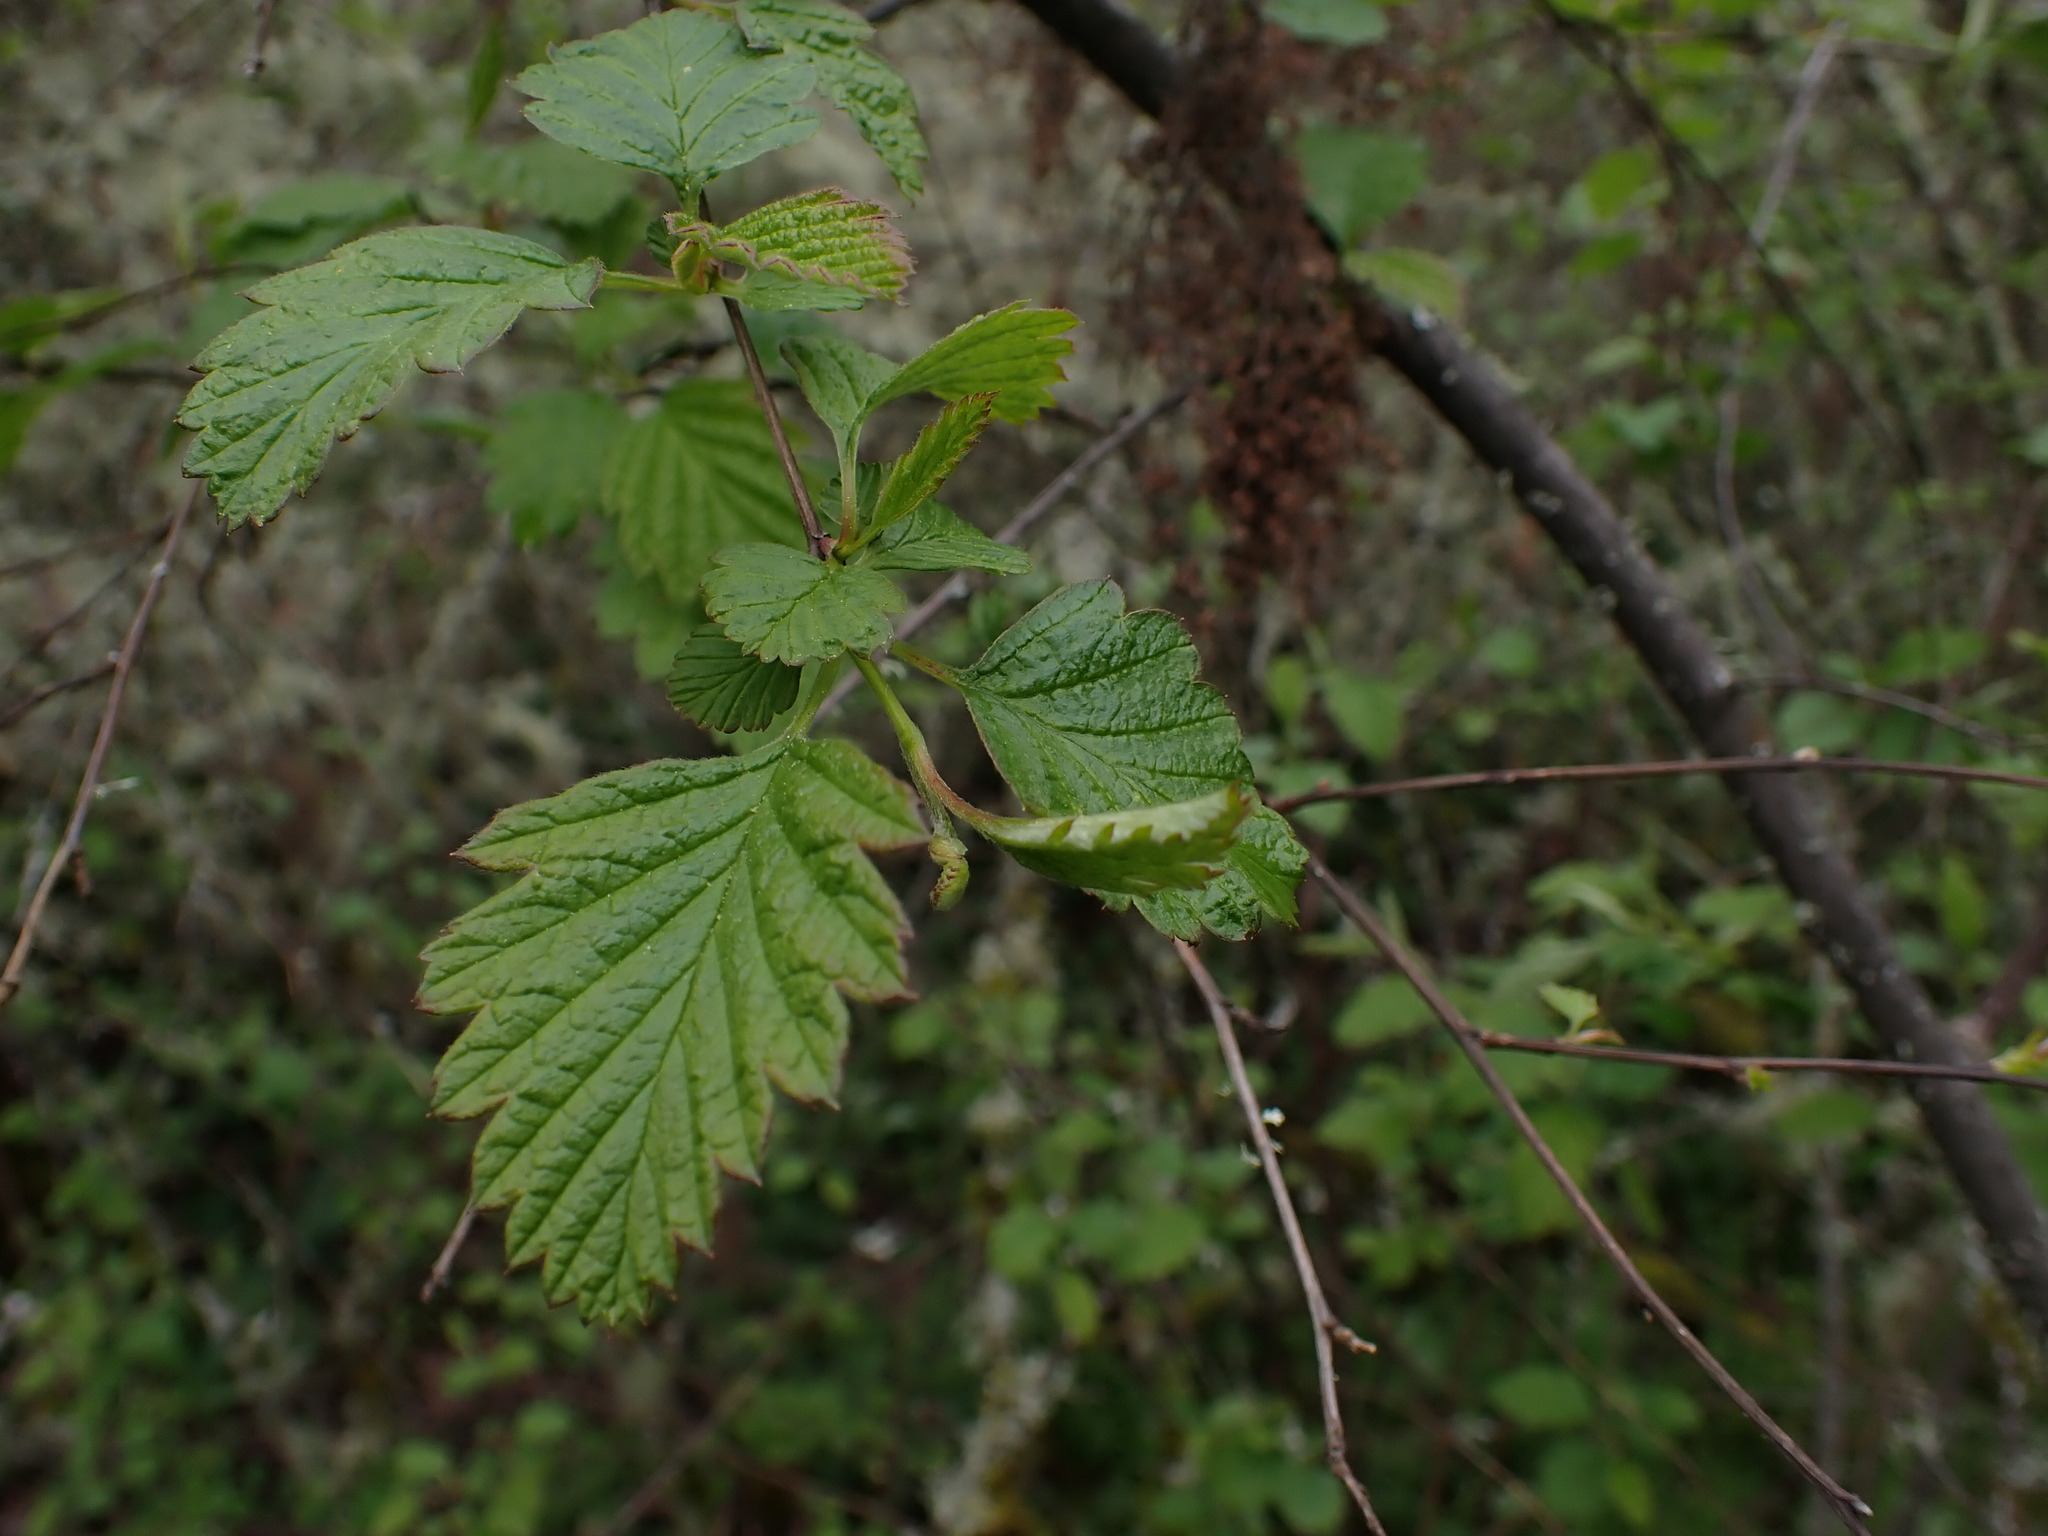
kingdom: Plantae
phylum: Tracheophyta
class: Magnoliopsida
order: Rosales
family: Rosaceae
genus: Holodiscus
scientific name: Holodiscus discolor
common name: Oceanspray
